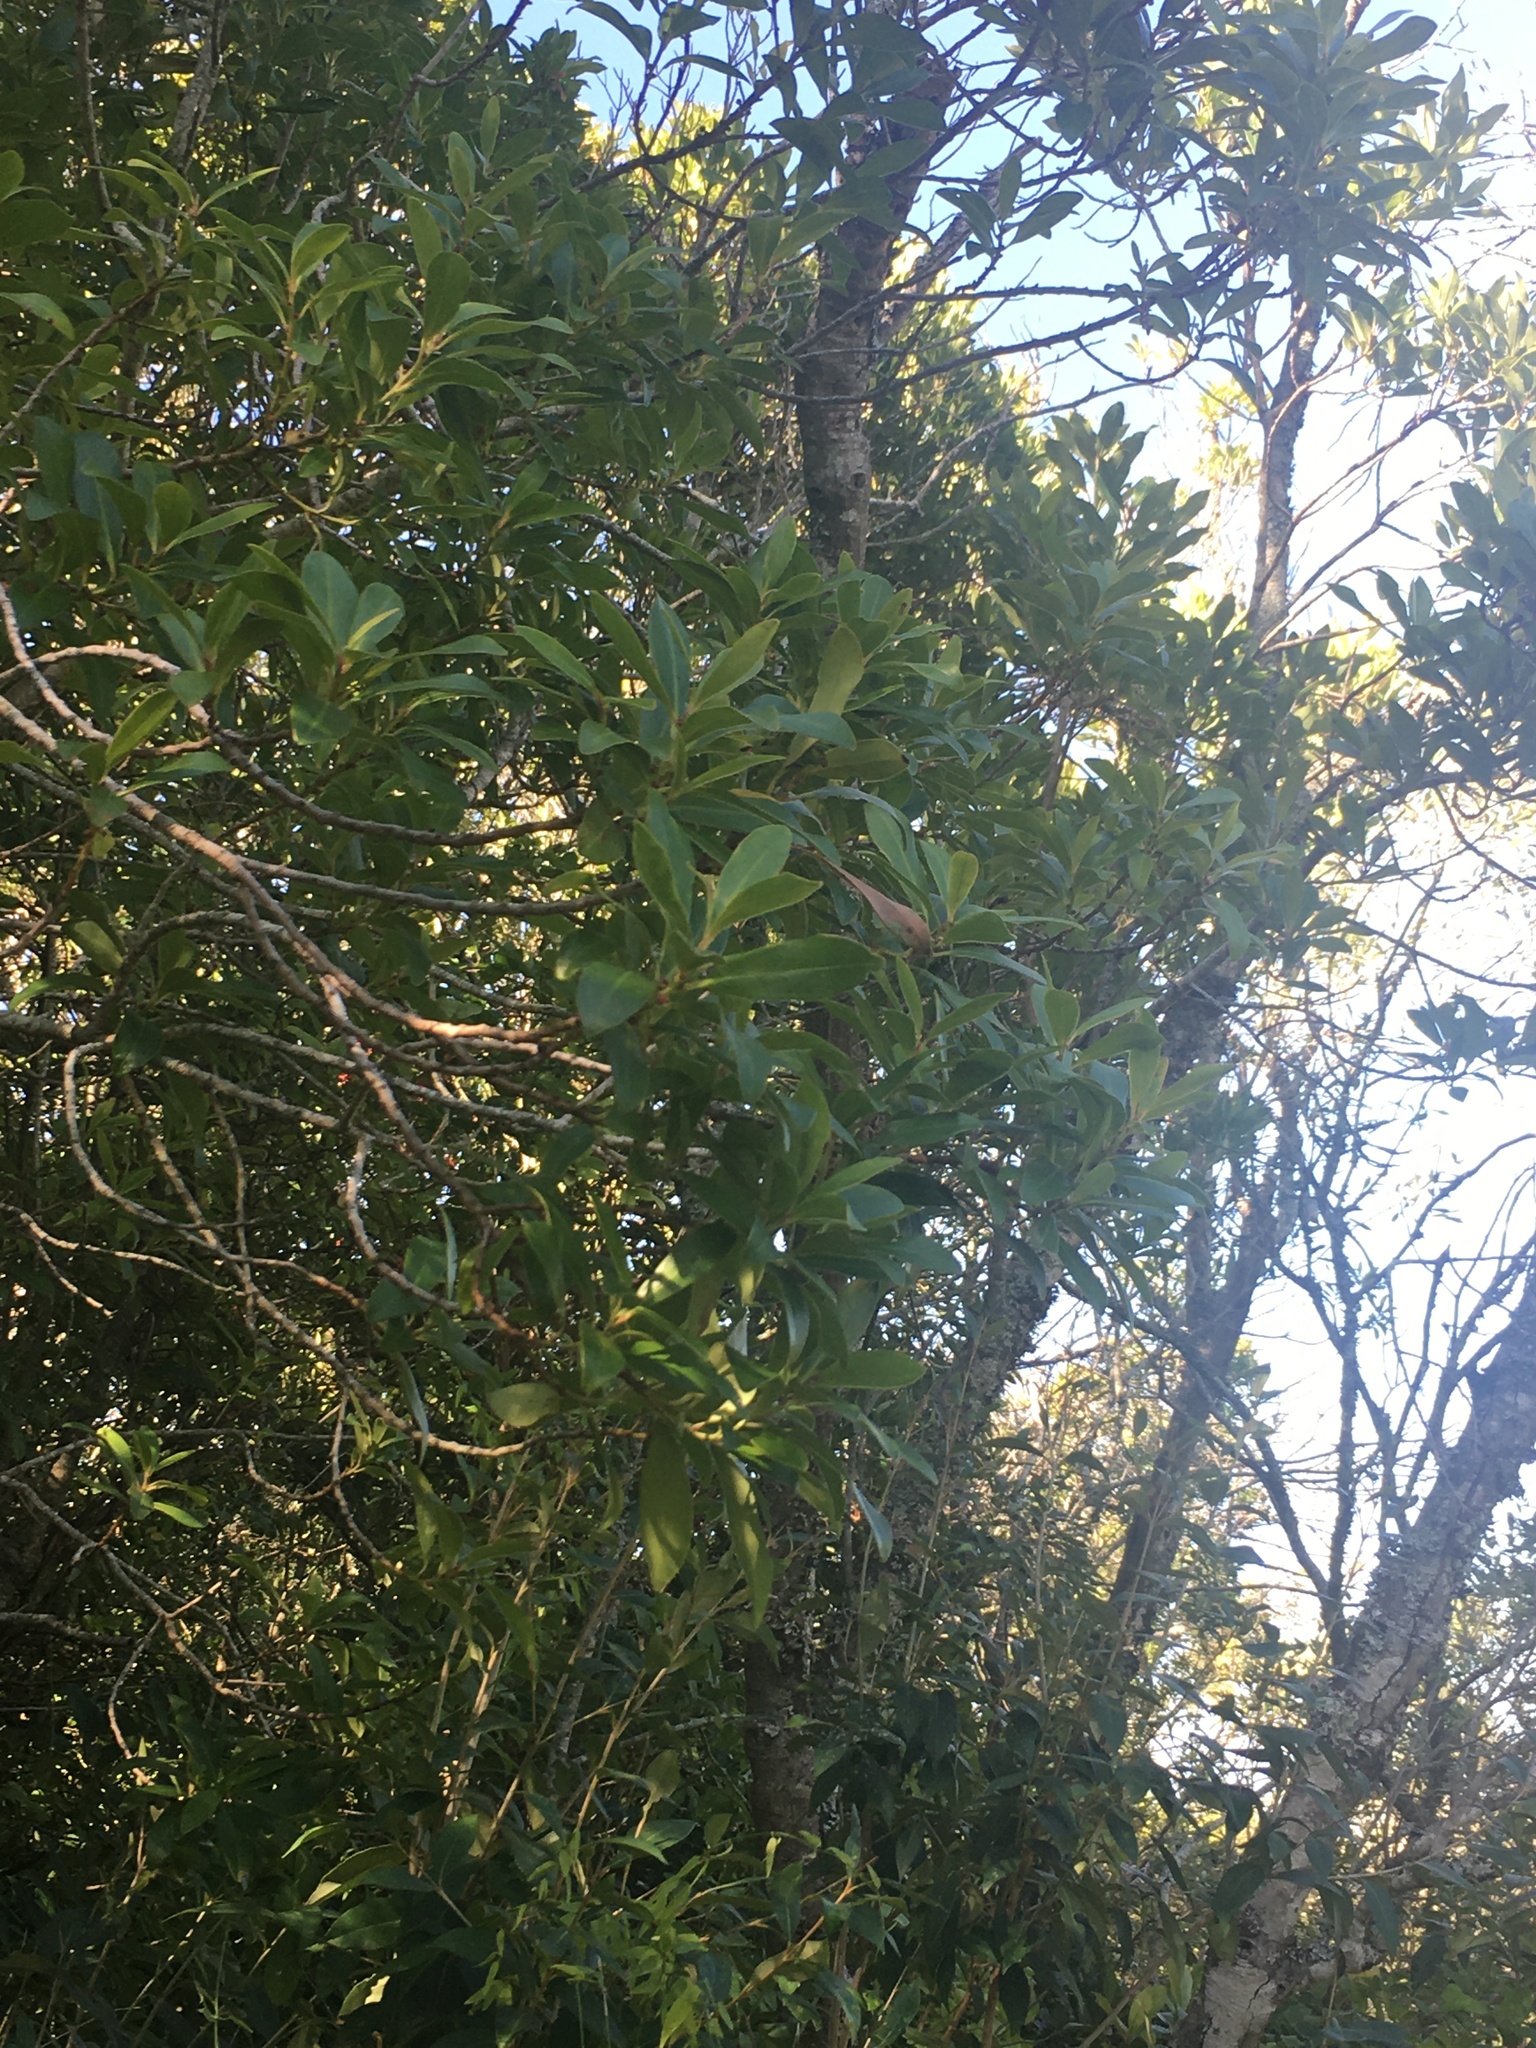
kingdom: Plantae
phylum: Tracheophyta
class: Magnoliopsida
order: Ericales
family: Primulaceae
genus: Myrsine
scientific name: Myrsine lorentziana
